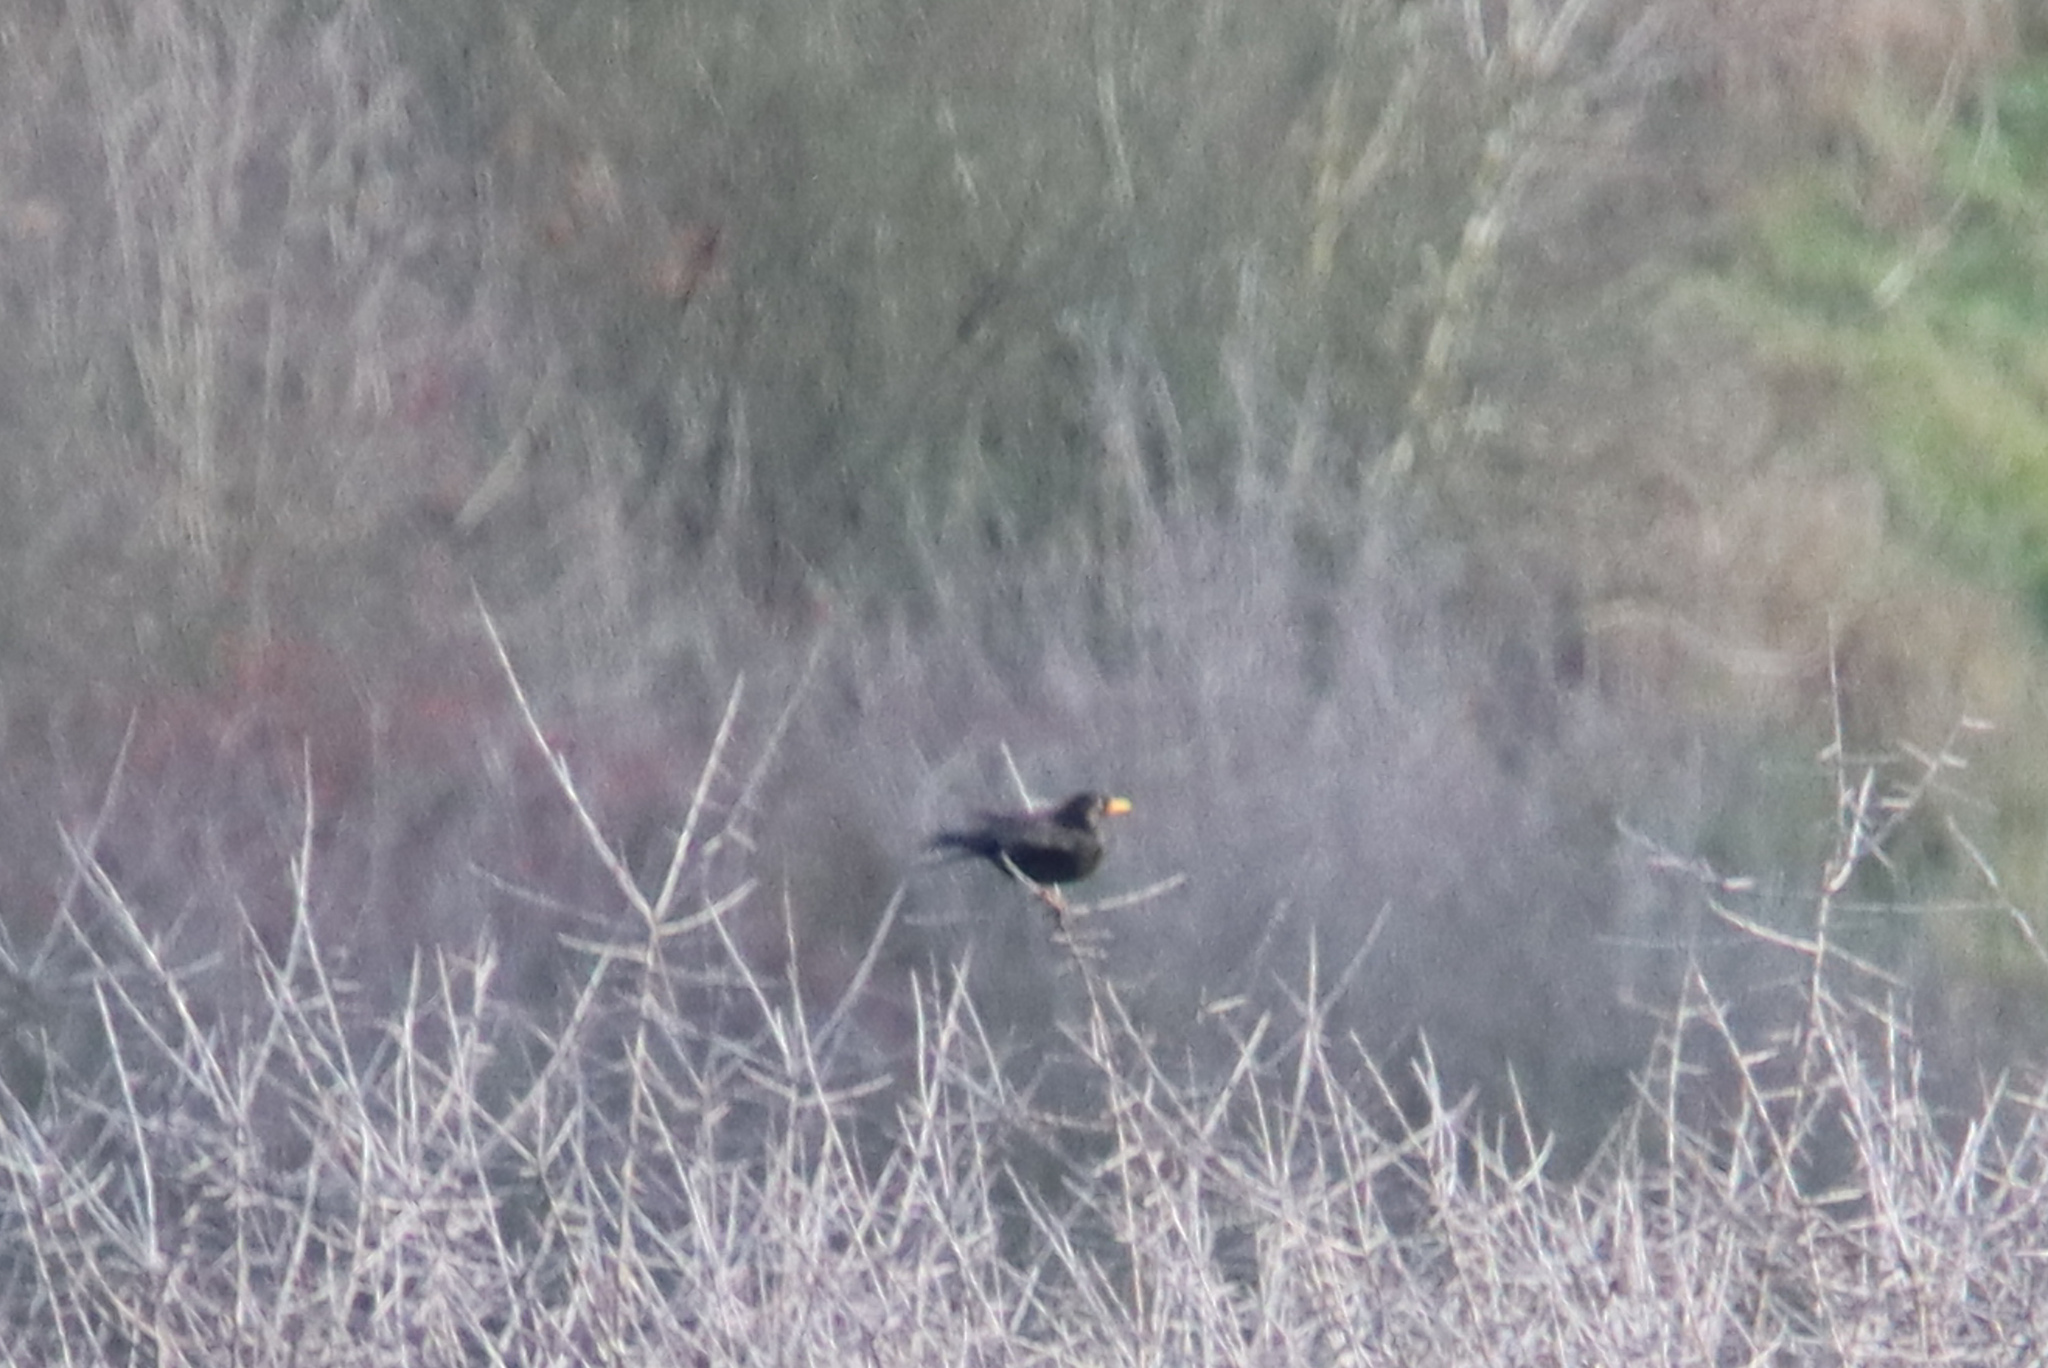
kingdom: Animalia
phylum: Chordata
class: Aves
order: Passeriformes
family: Turdidae
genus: Turdus
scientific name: Turdus merula
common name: Common blackbird
